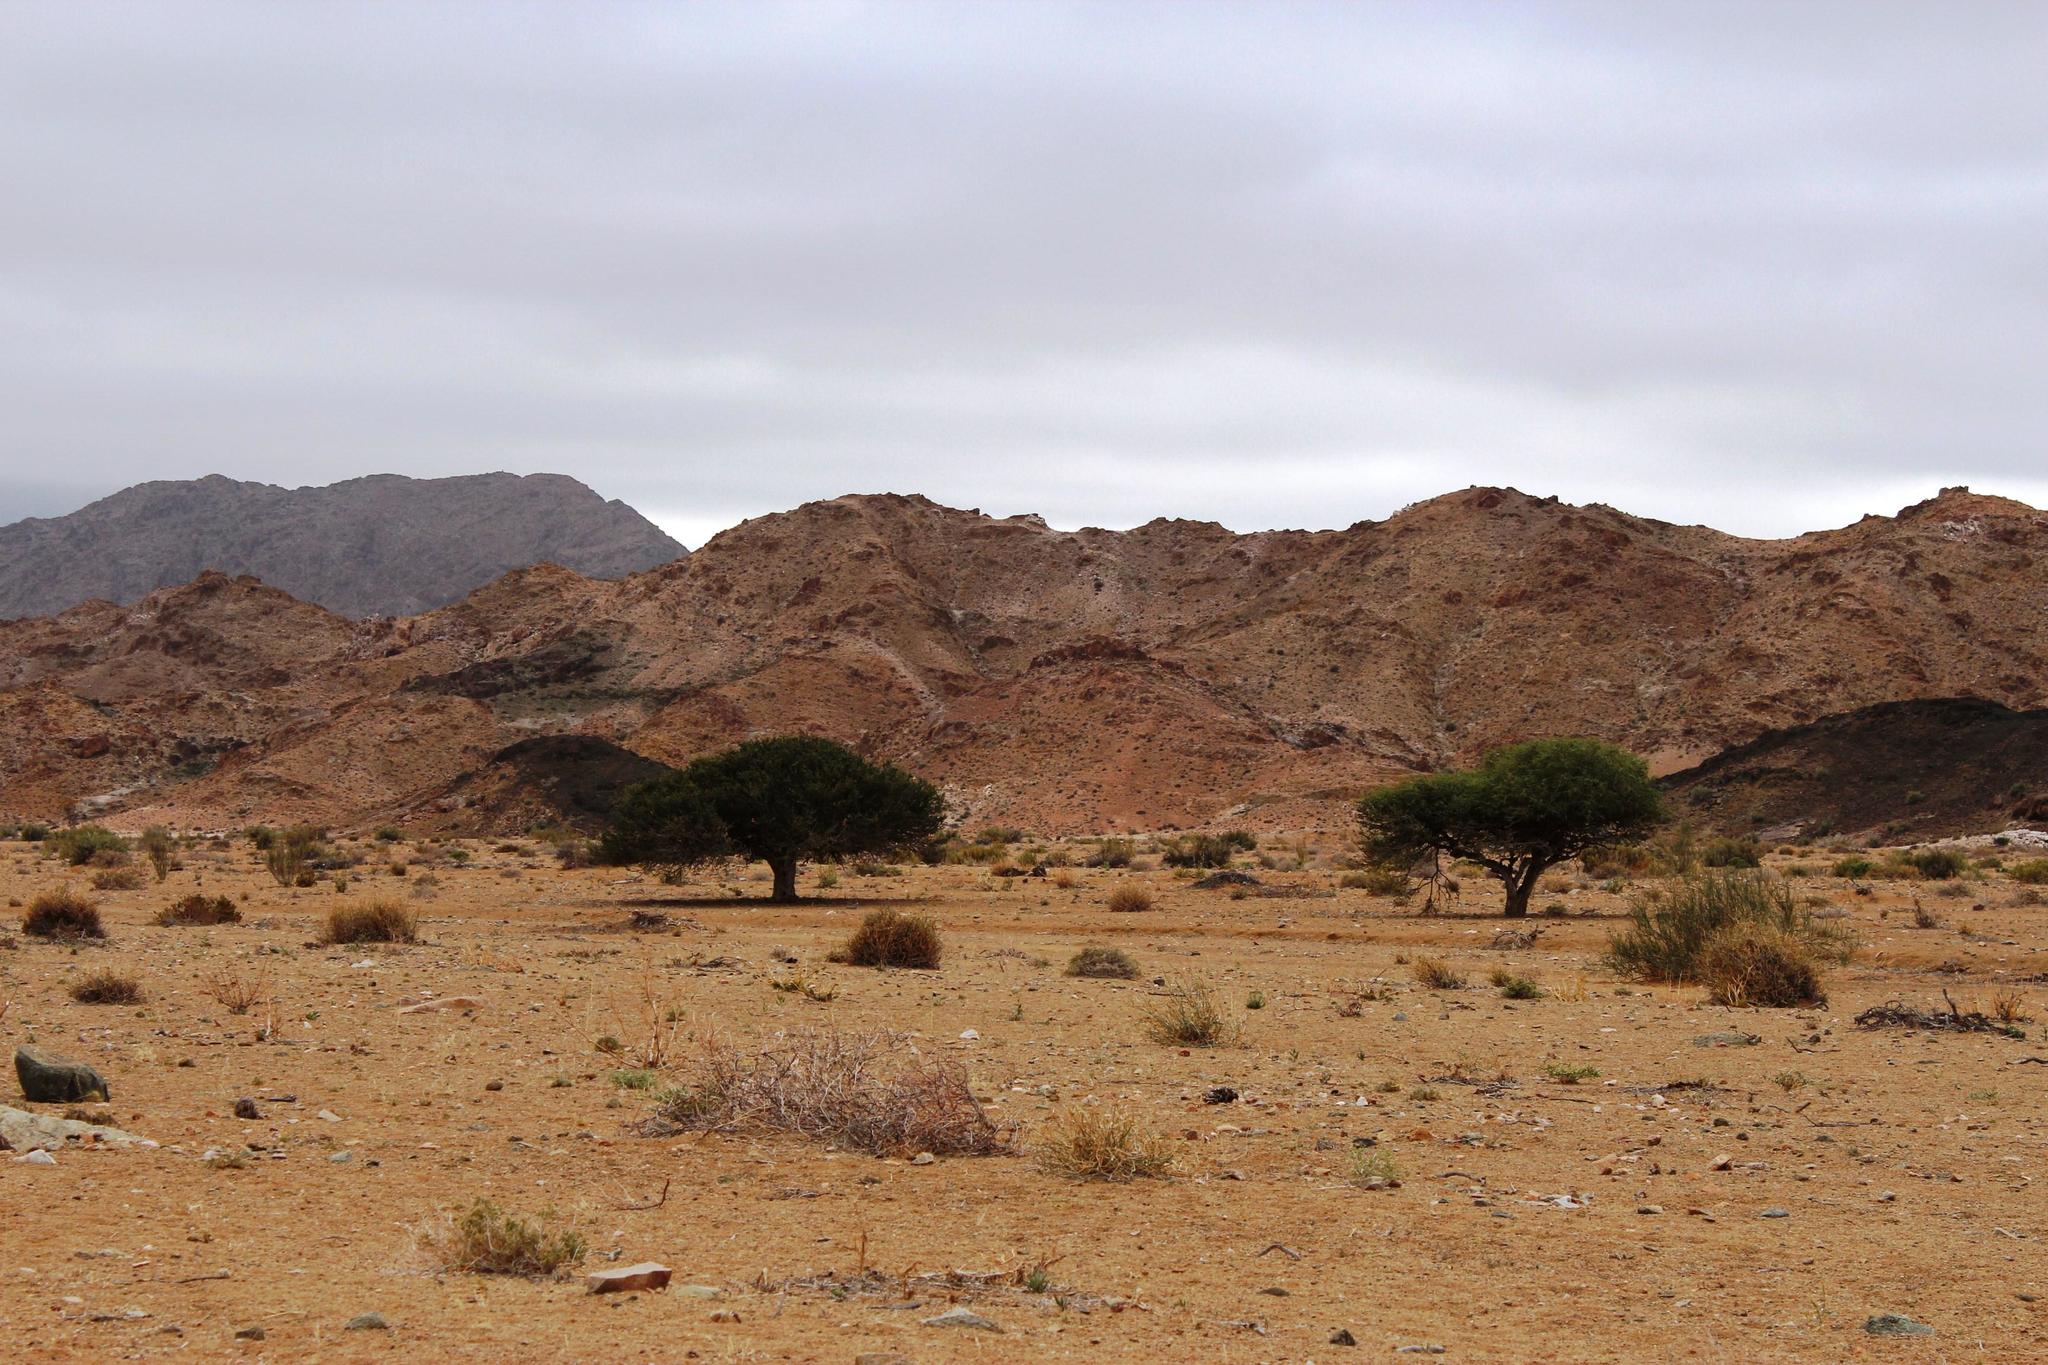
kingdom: Plantae
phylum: Tracheophyta
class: Magnoliopsida
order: Brassicales
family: Capparaceae
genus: Boscia
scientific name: Boscia albitrunca
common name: Caper bush
